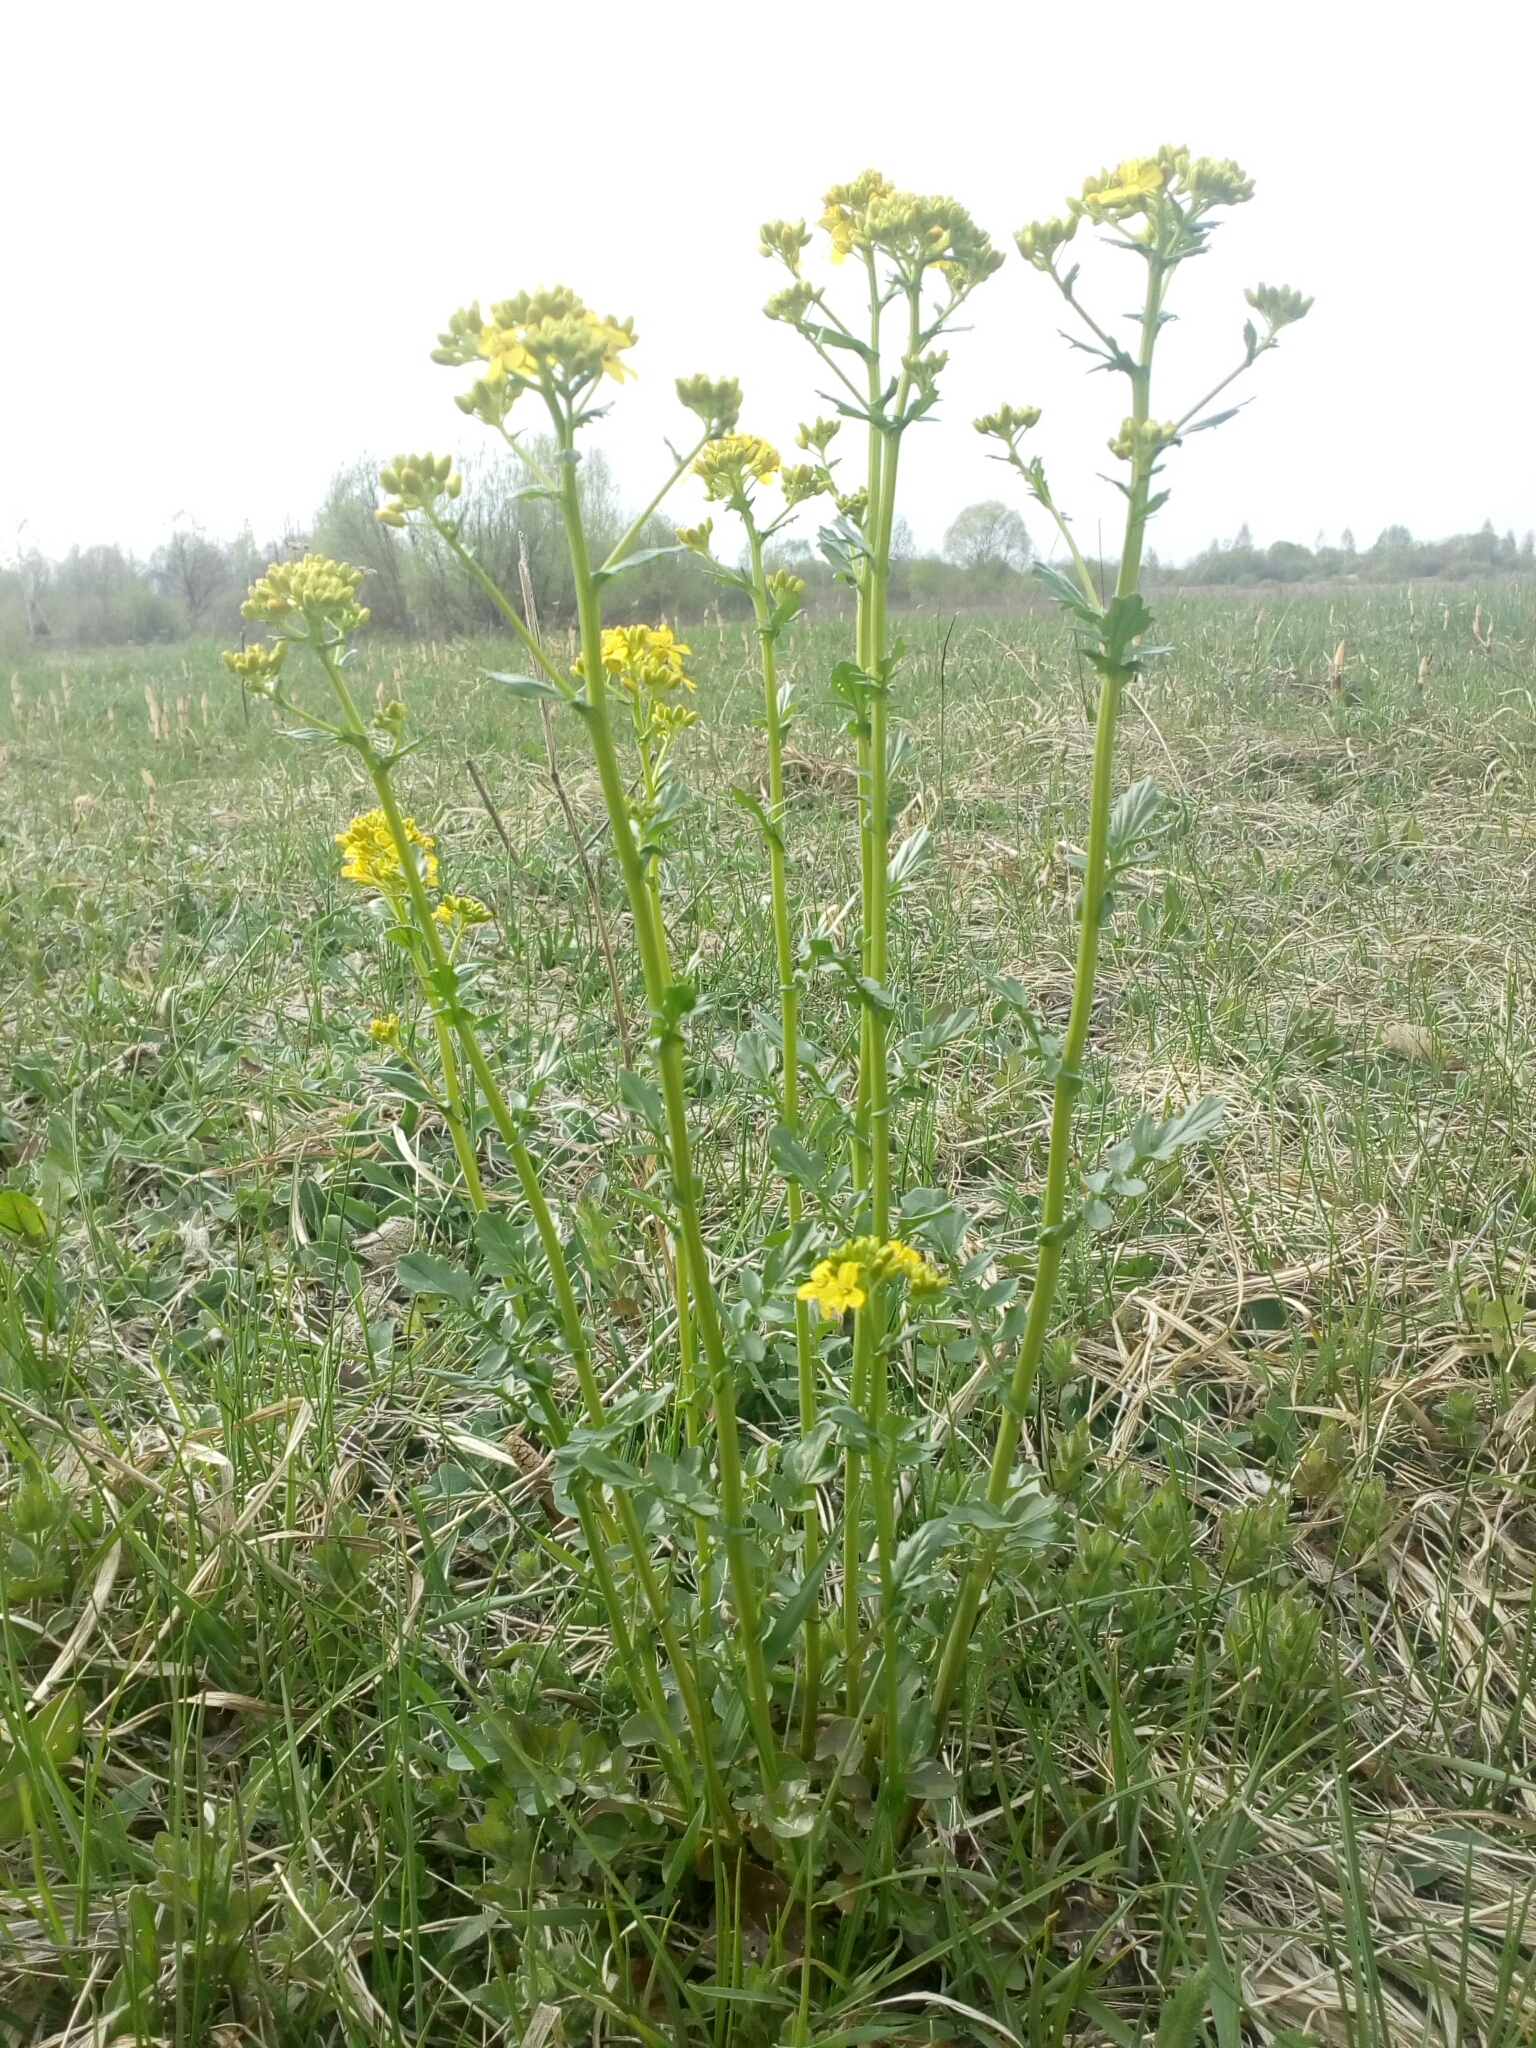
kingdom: Plantae
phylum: Tracheophyta
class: Magnoliopsida
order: Brassicales
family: Brassicaceae
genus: Barbarea
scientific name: Barbarea vulgaris
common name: Cressy-greens
